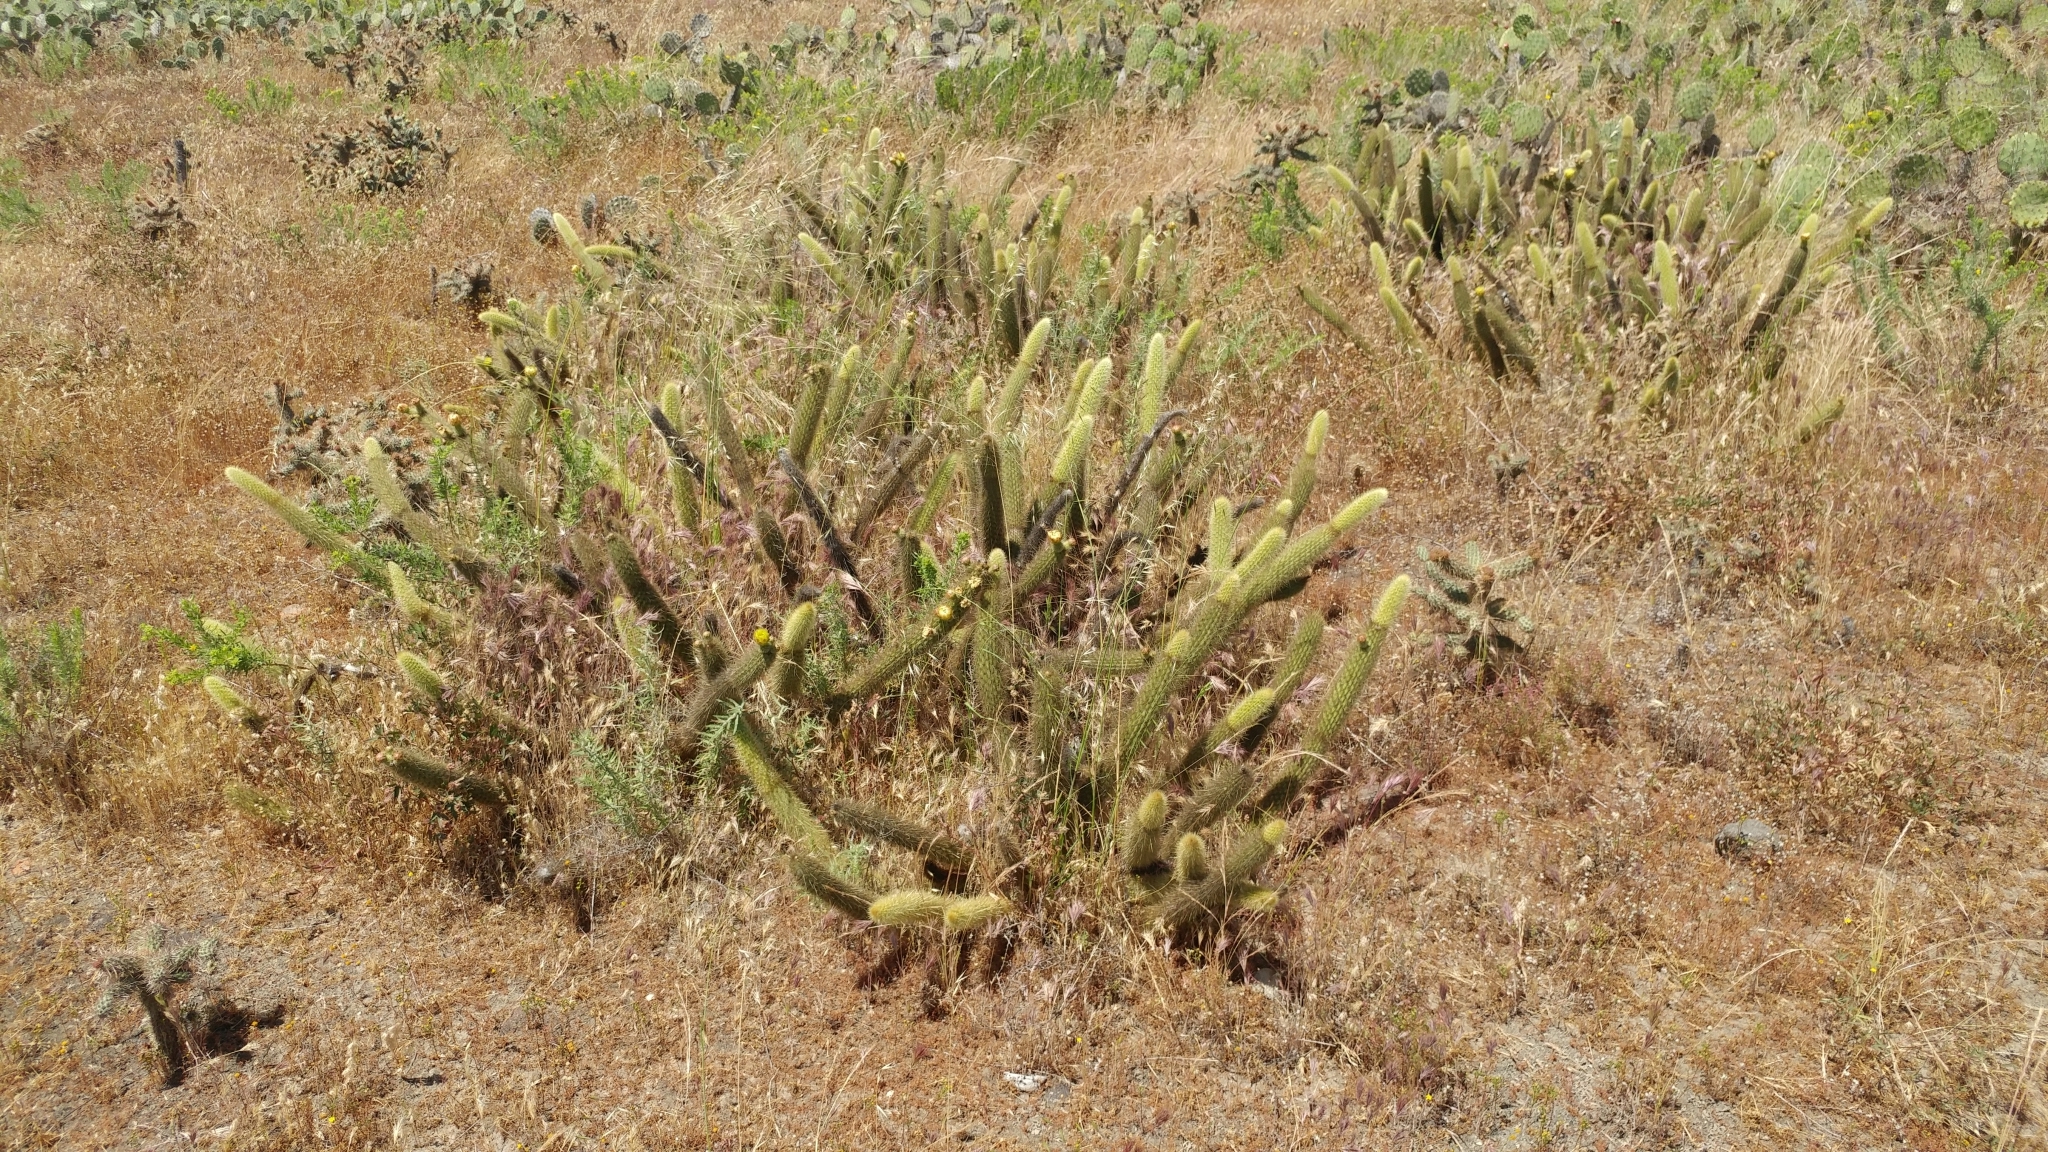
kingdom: Plantae
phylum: Tracheophyta
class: Magnoliopsida
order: Caryophyllales
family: Cactaceae
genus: Bergerocactus
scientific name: Bergerocactus emoryi
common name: Golden snakecactus
